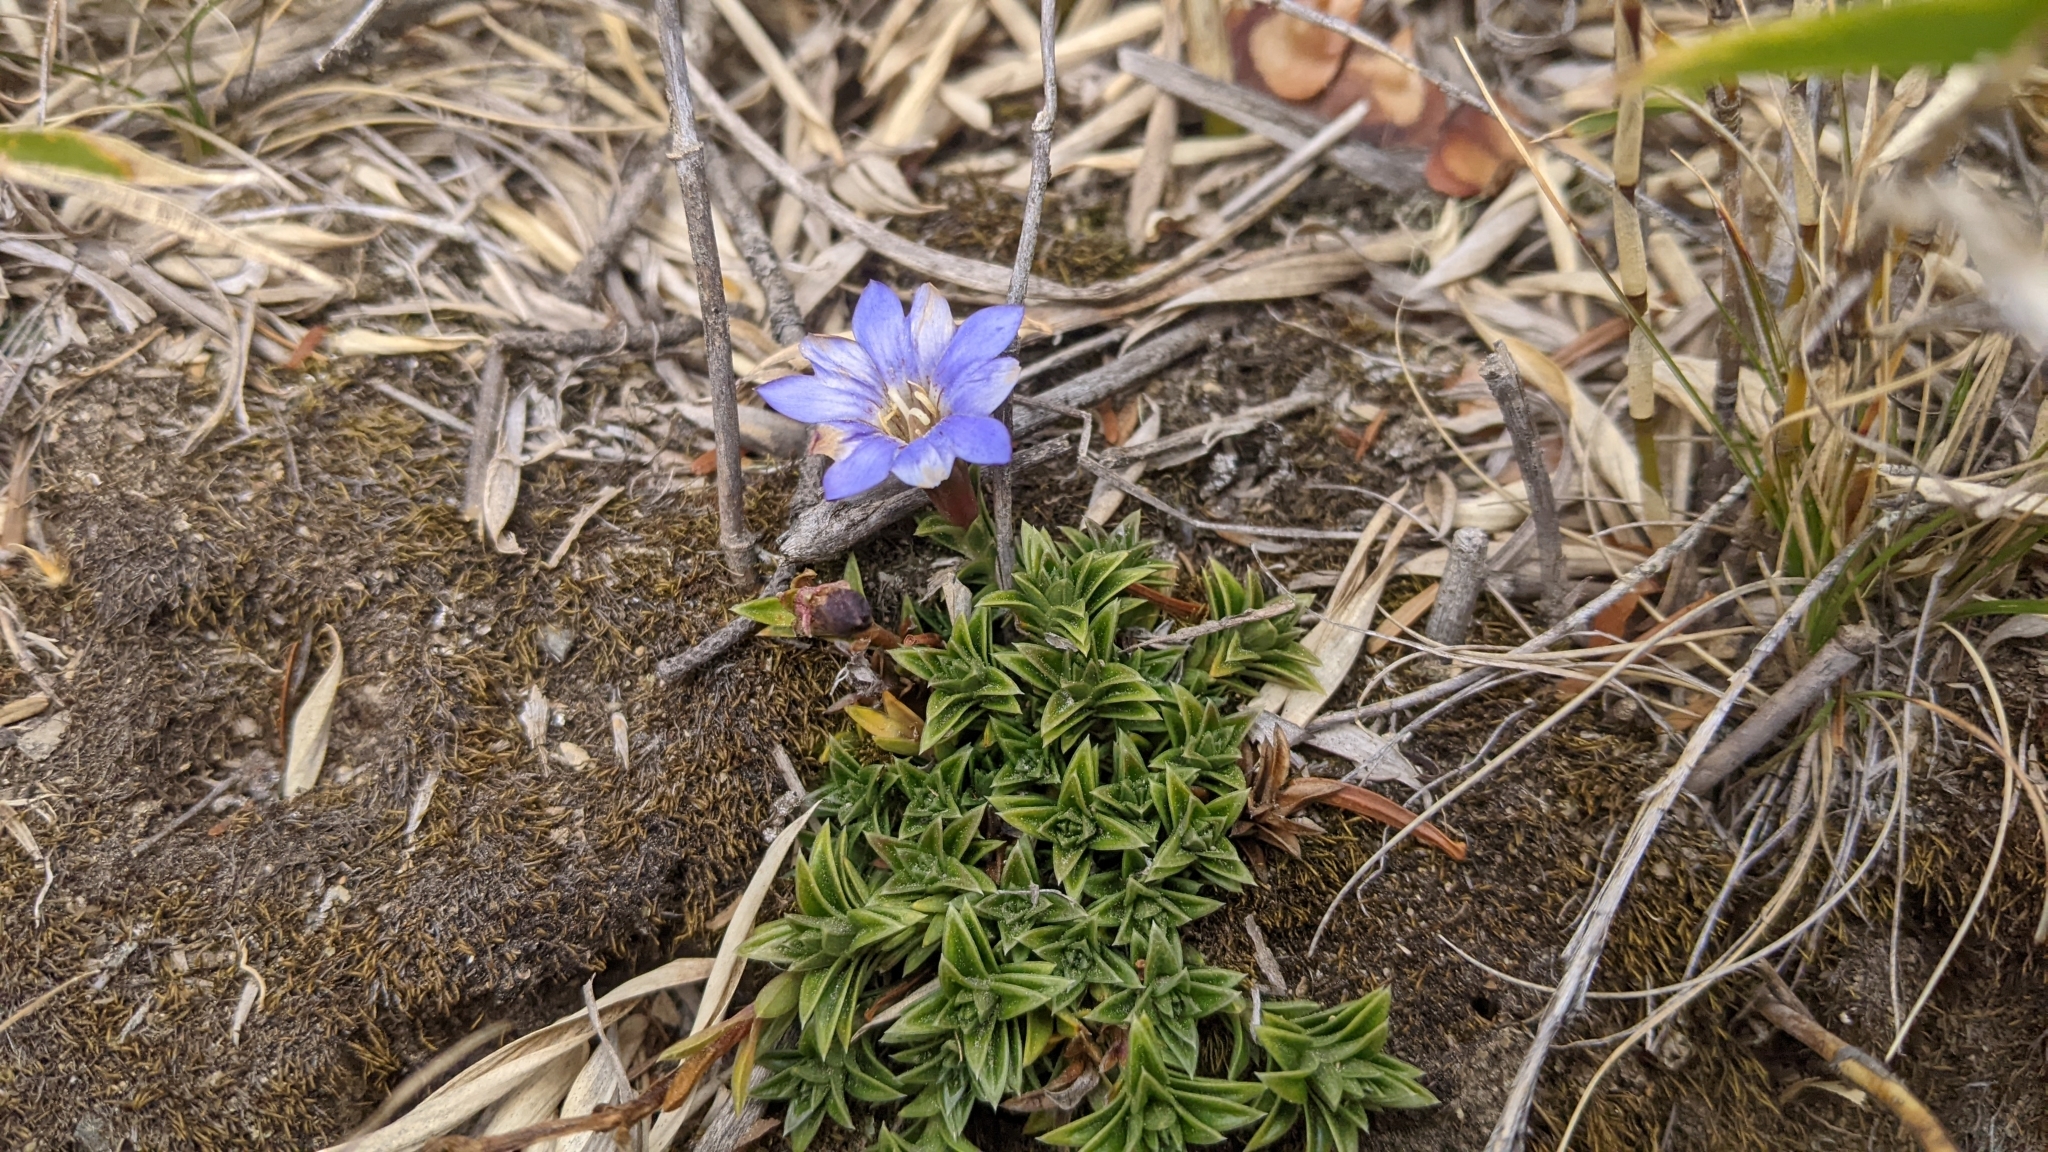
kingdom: Plantae
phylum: Tracheophyta
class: Magnoliopsida
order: Gentianales
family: Gentianaceae
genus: Gentiana
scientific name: Gentiana arisanensis
